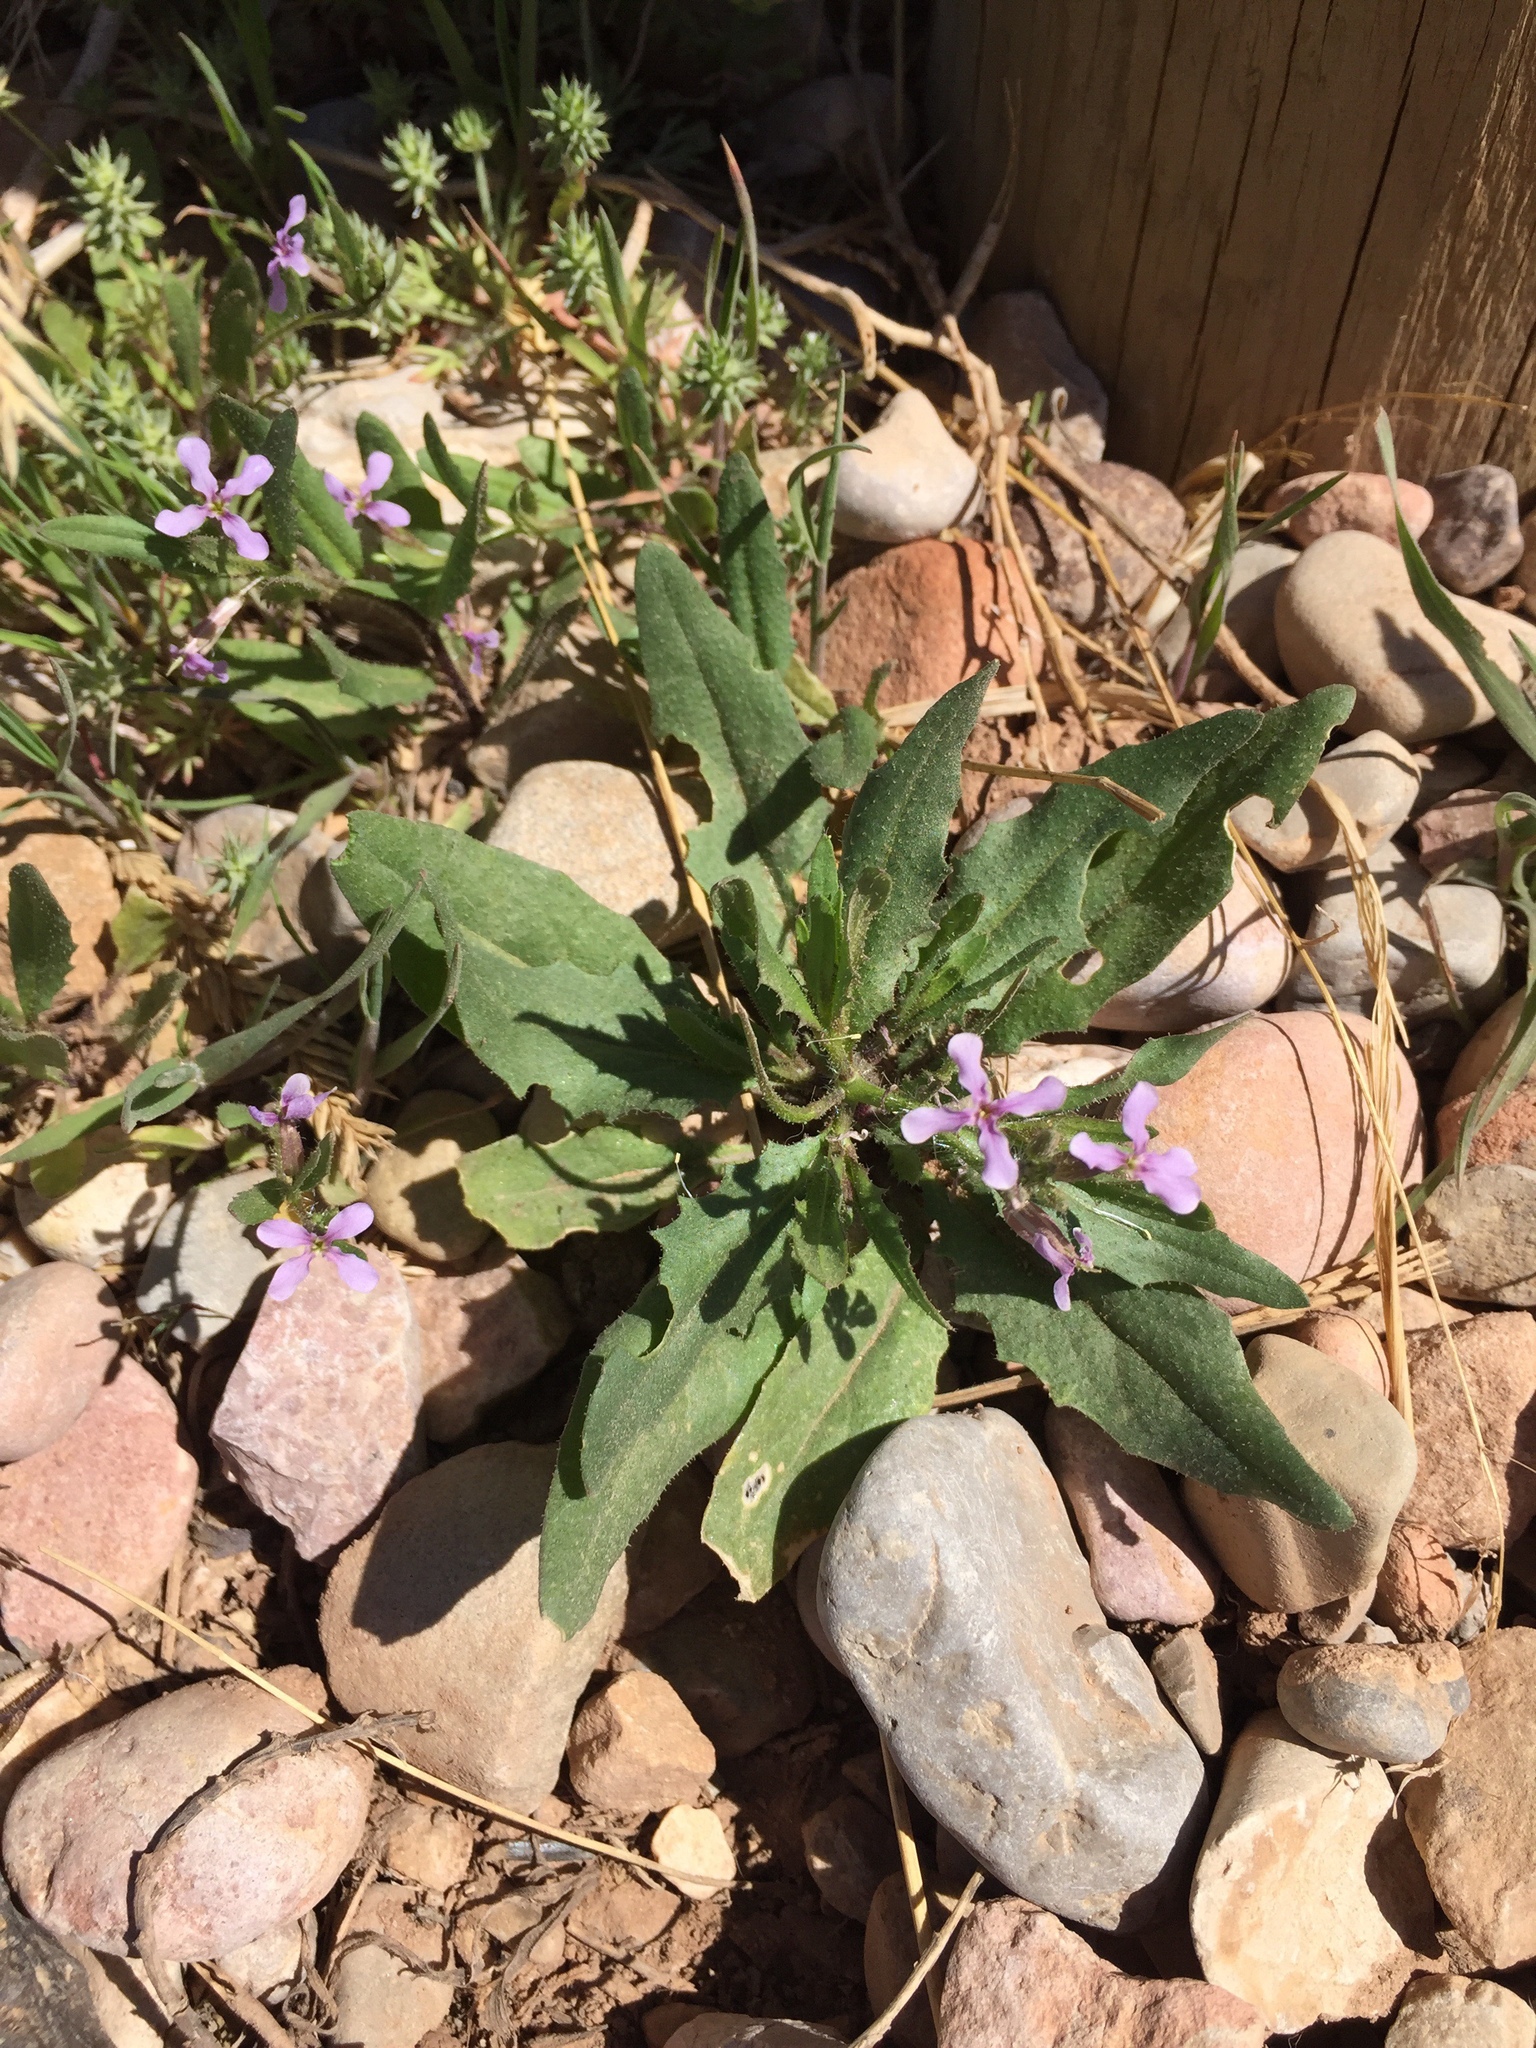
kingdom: Plantae
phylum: Tracheophyta
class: Magnoliopsida
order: Brassicales
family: Brassicaceae
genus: Chorispora
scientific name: Chorispora tenella
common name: Crossflower
